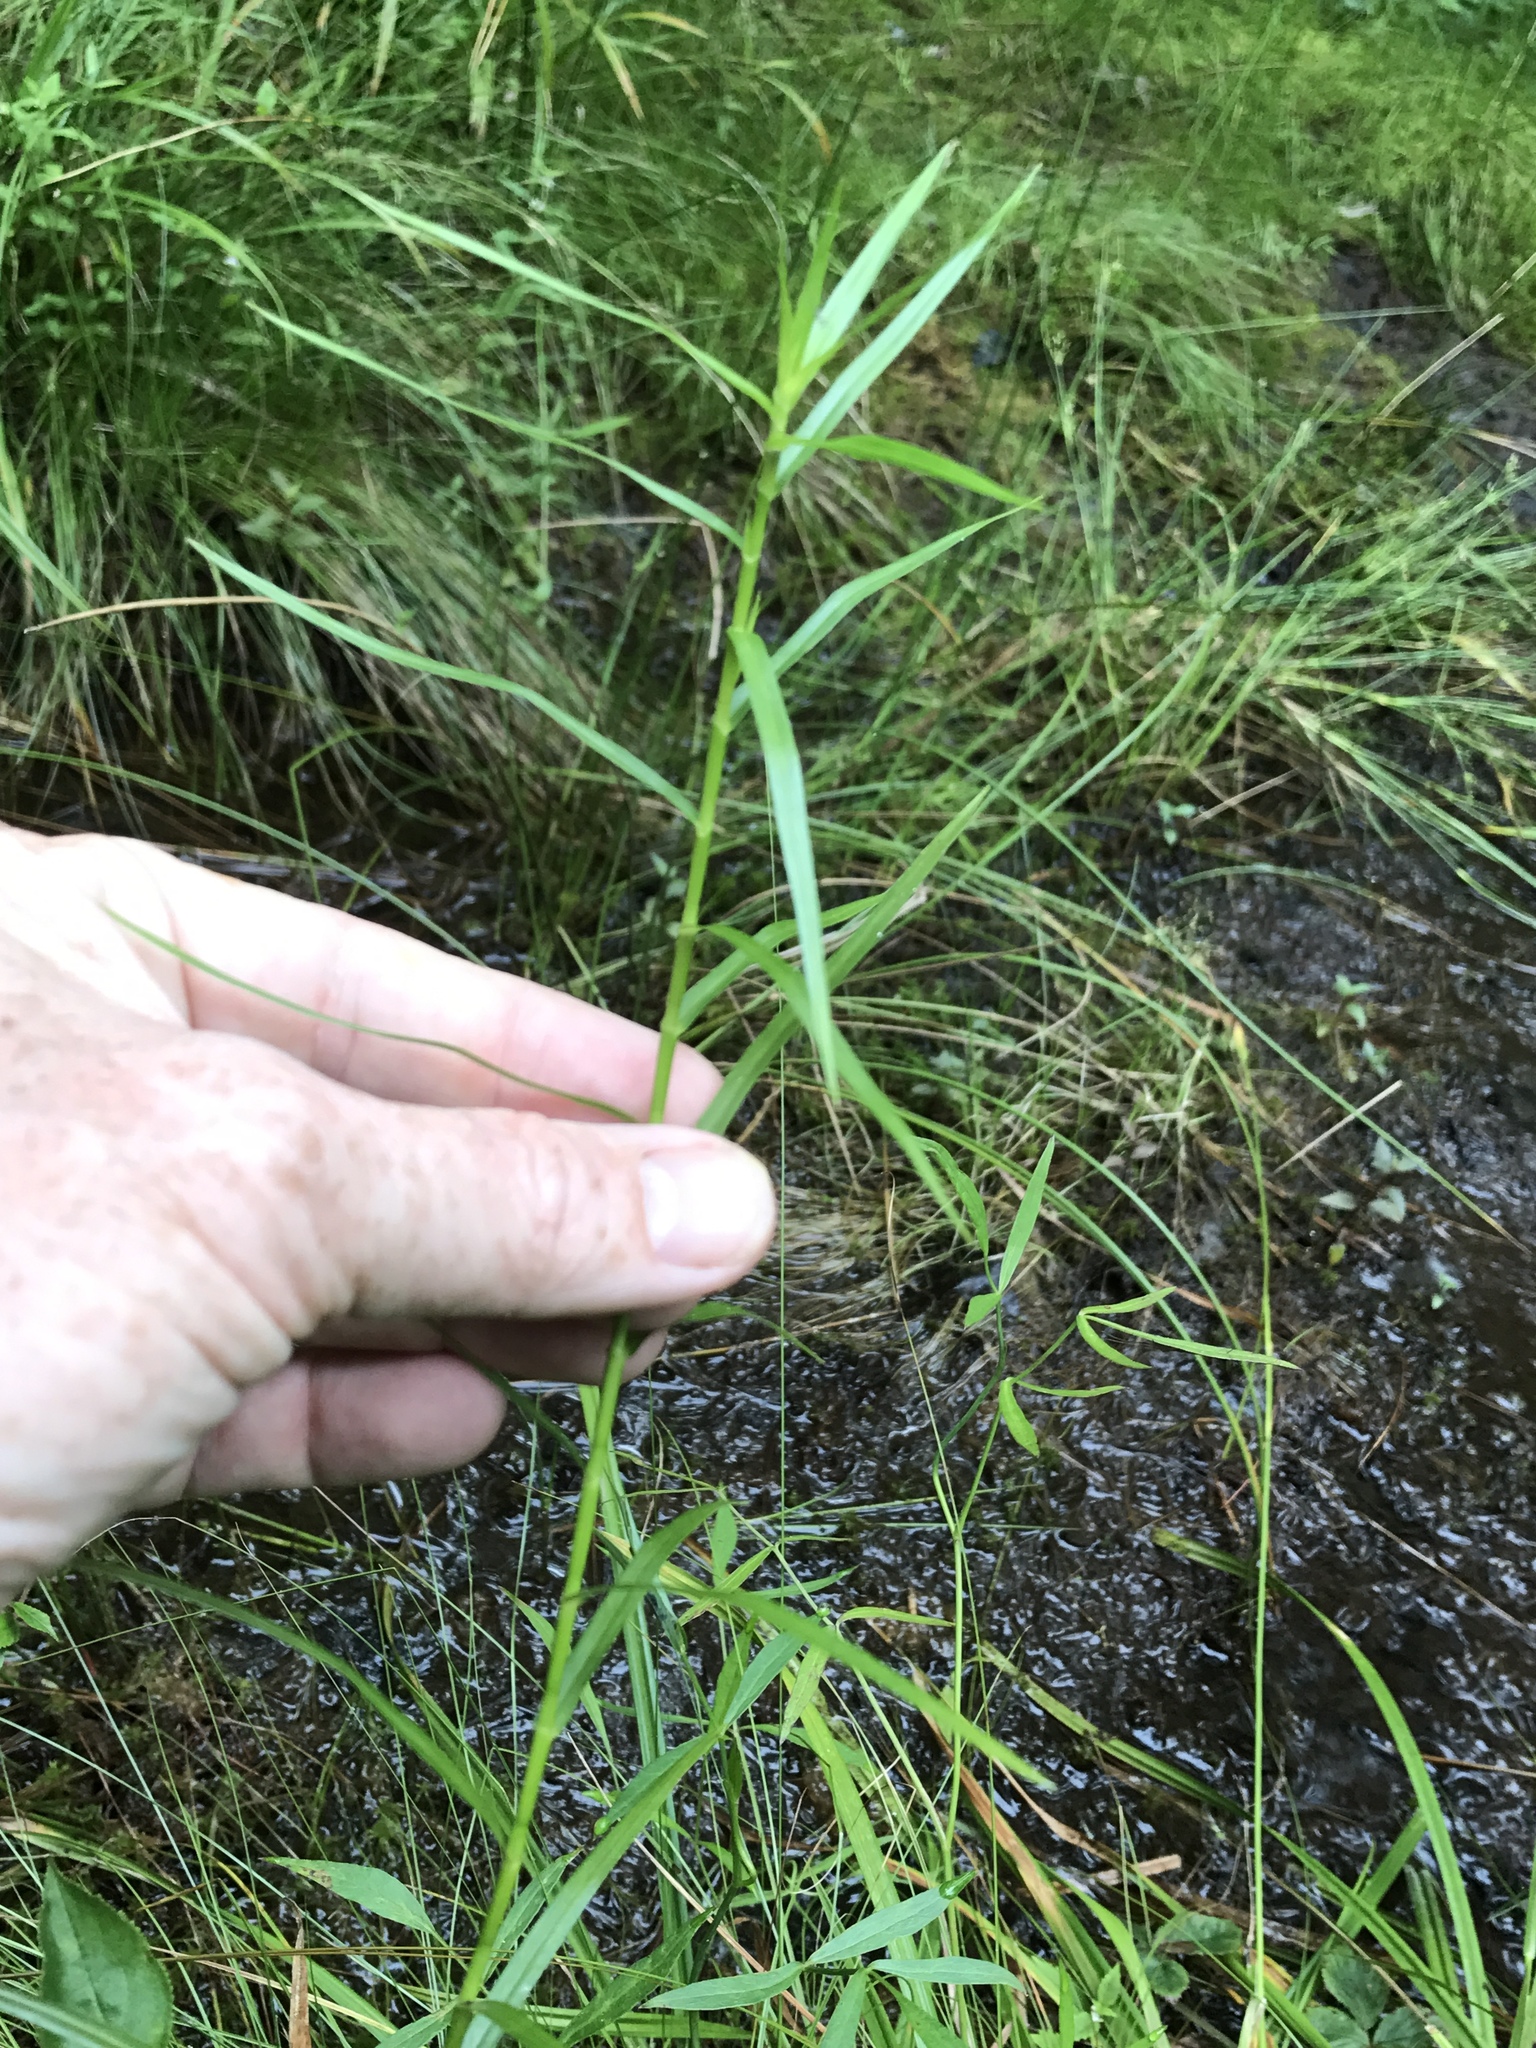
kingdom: Plantae
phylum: Tracheophyta
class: Liliopsida
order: Poales
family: Cyperaceae
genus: Dulichium
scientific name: Dulichium arundinaceum
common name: Three-way sedge
